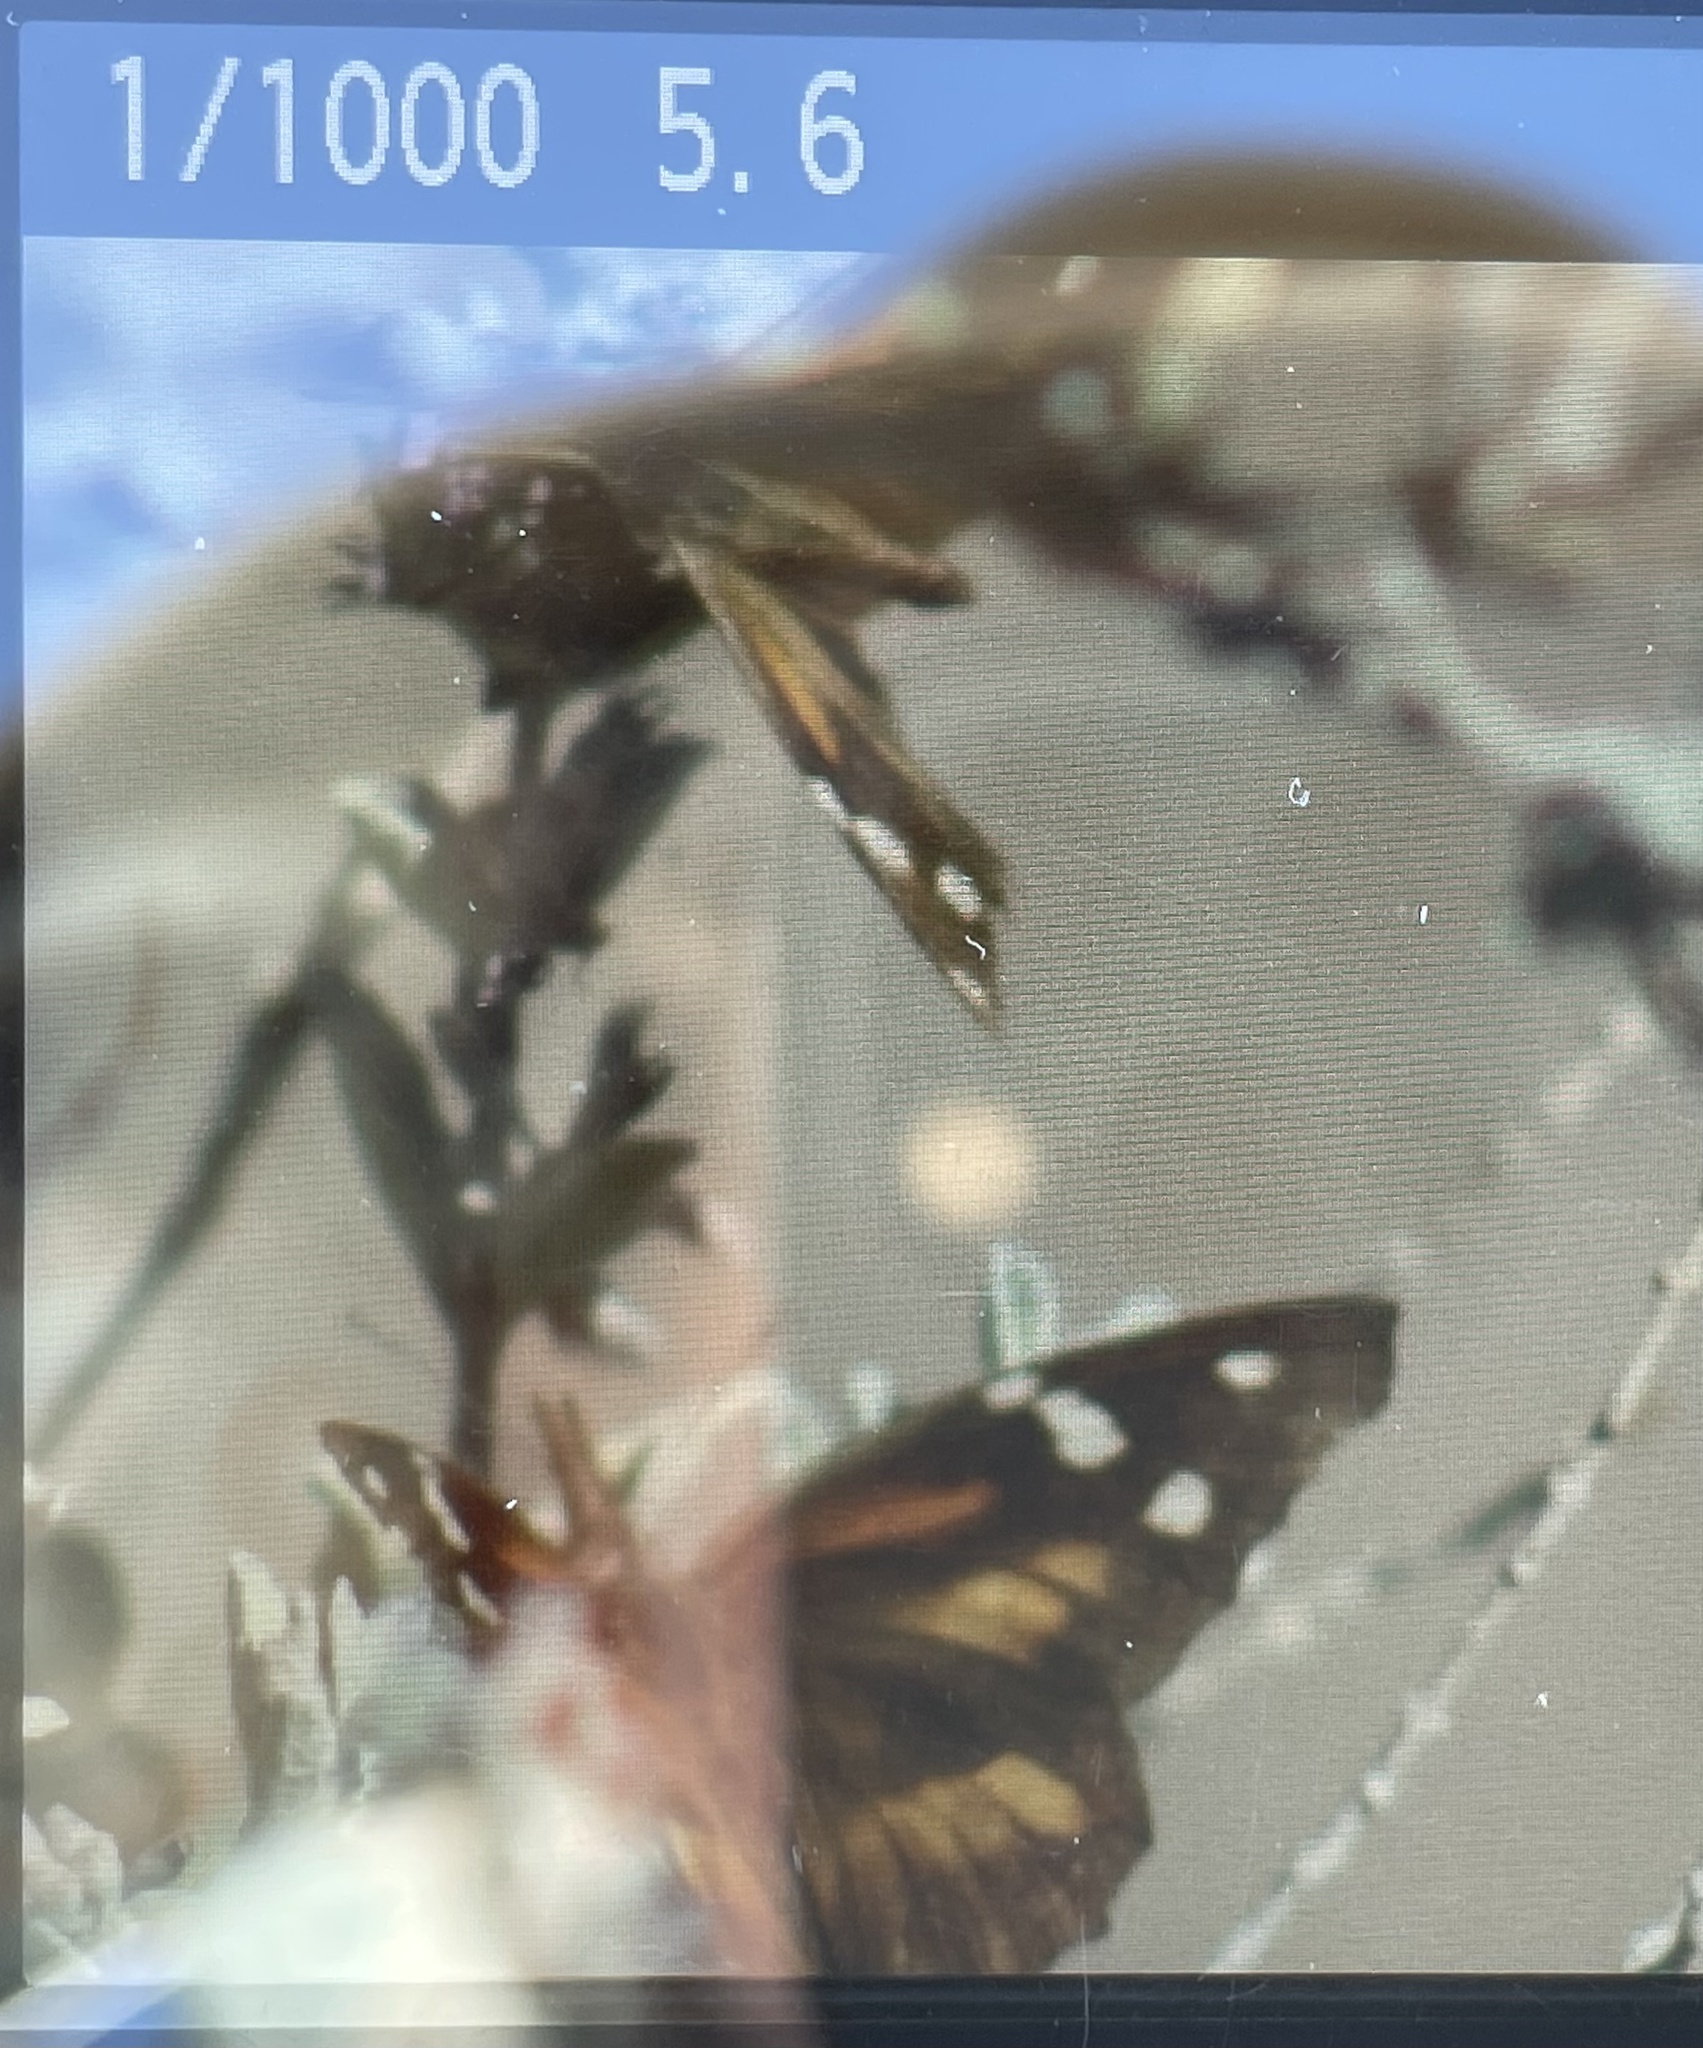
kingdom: Animalia
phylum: Arthropoda
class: Insecta
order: Lepidoptera
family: Nymphalidae
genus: Libytheana
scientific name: Libytheana carinenta
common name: American snout
